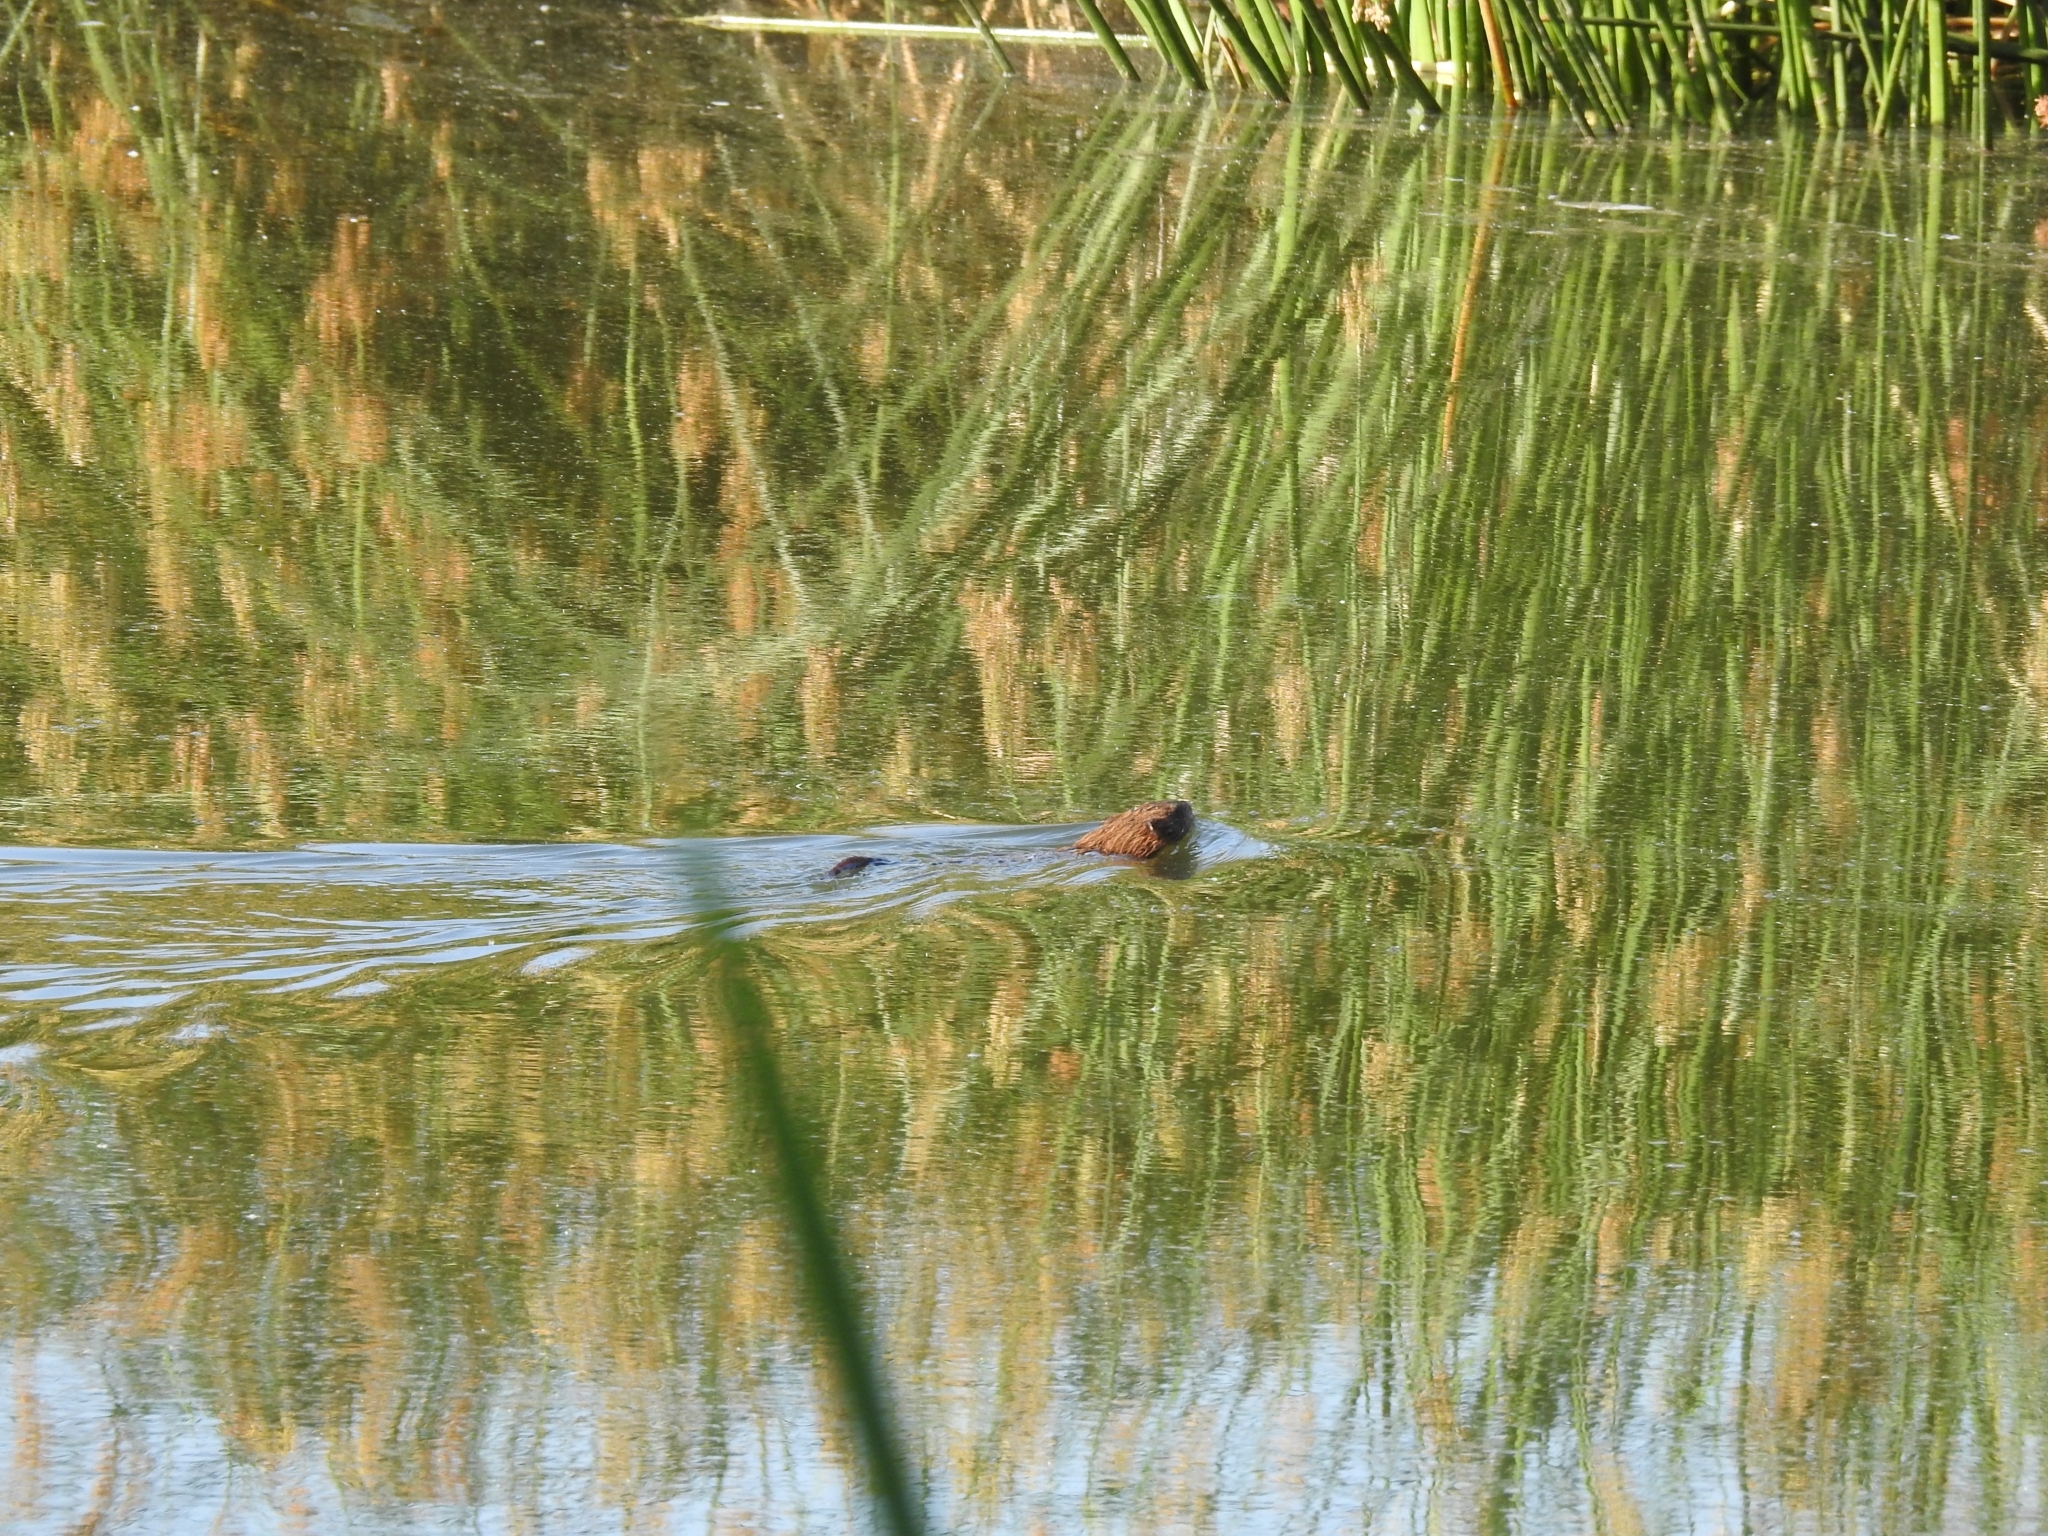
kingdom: Animalia
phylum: Chordata
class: Mammalia
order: Rodentia
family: Cricetidae
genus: Ondatra
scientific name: Ondatra zibethicus
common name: Muskrat
